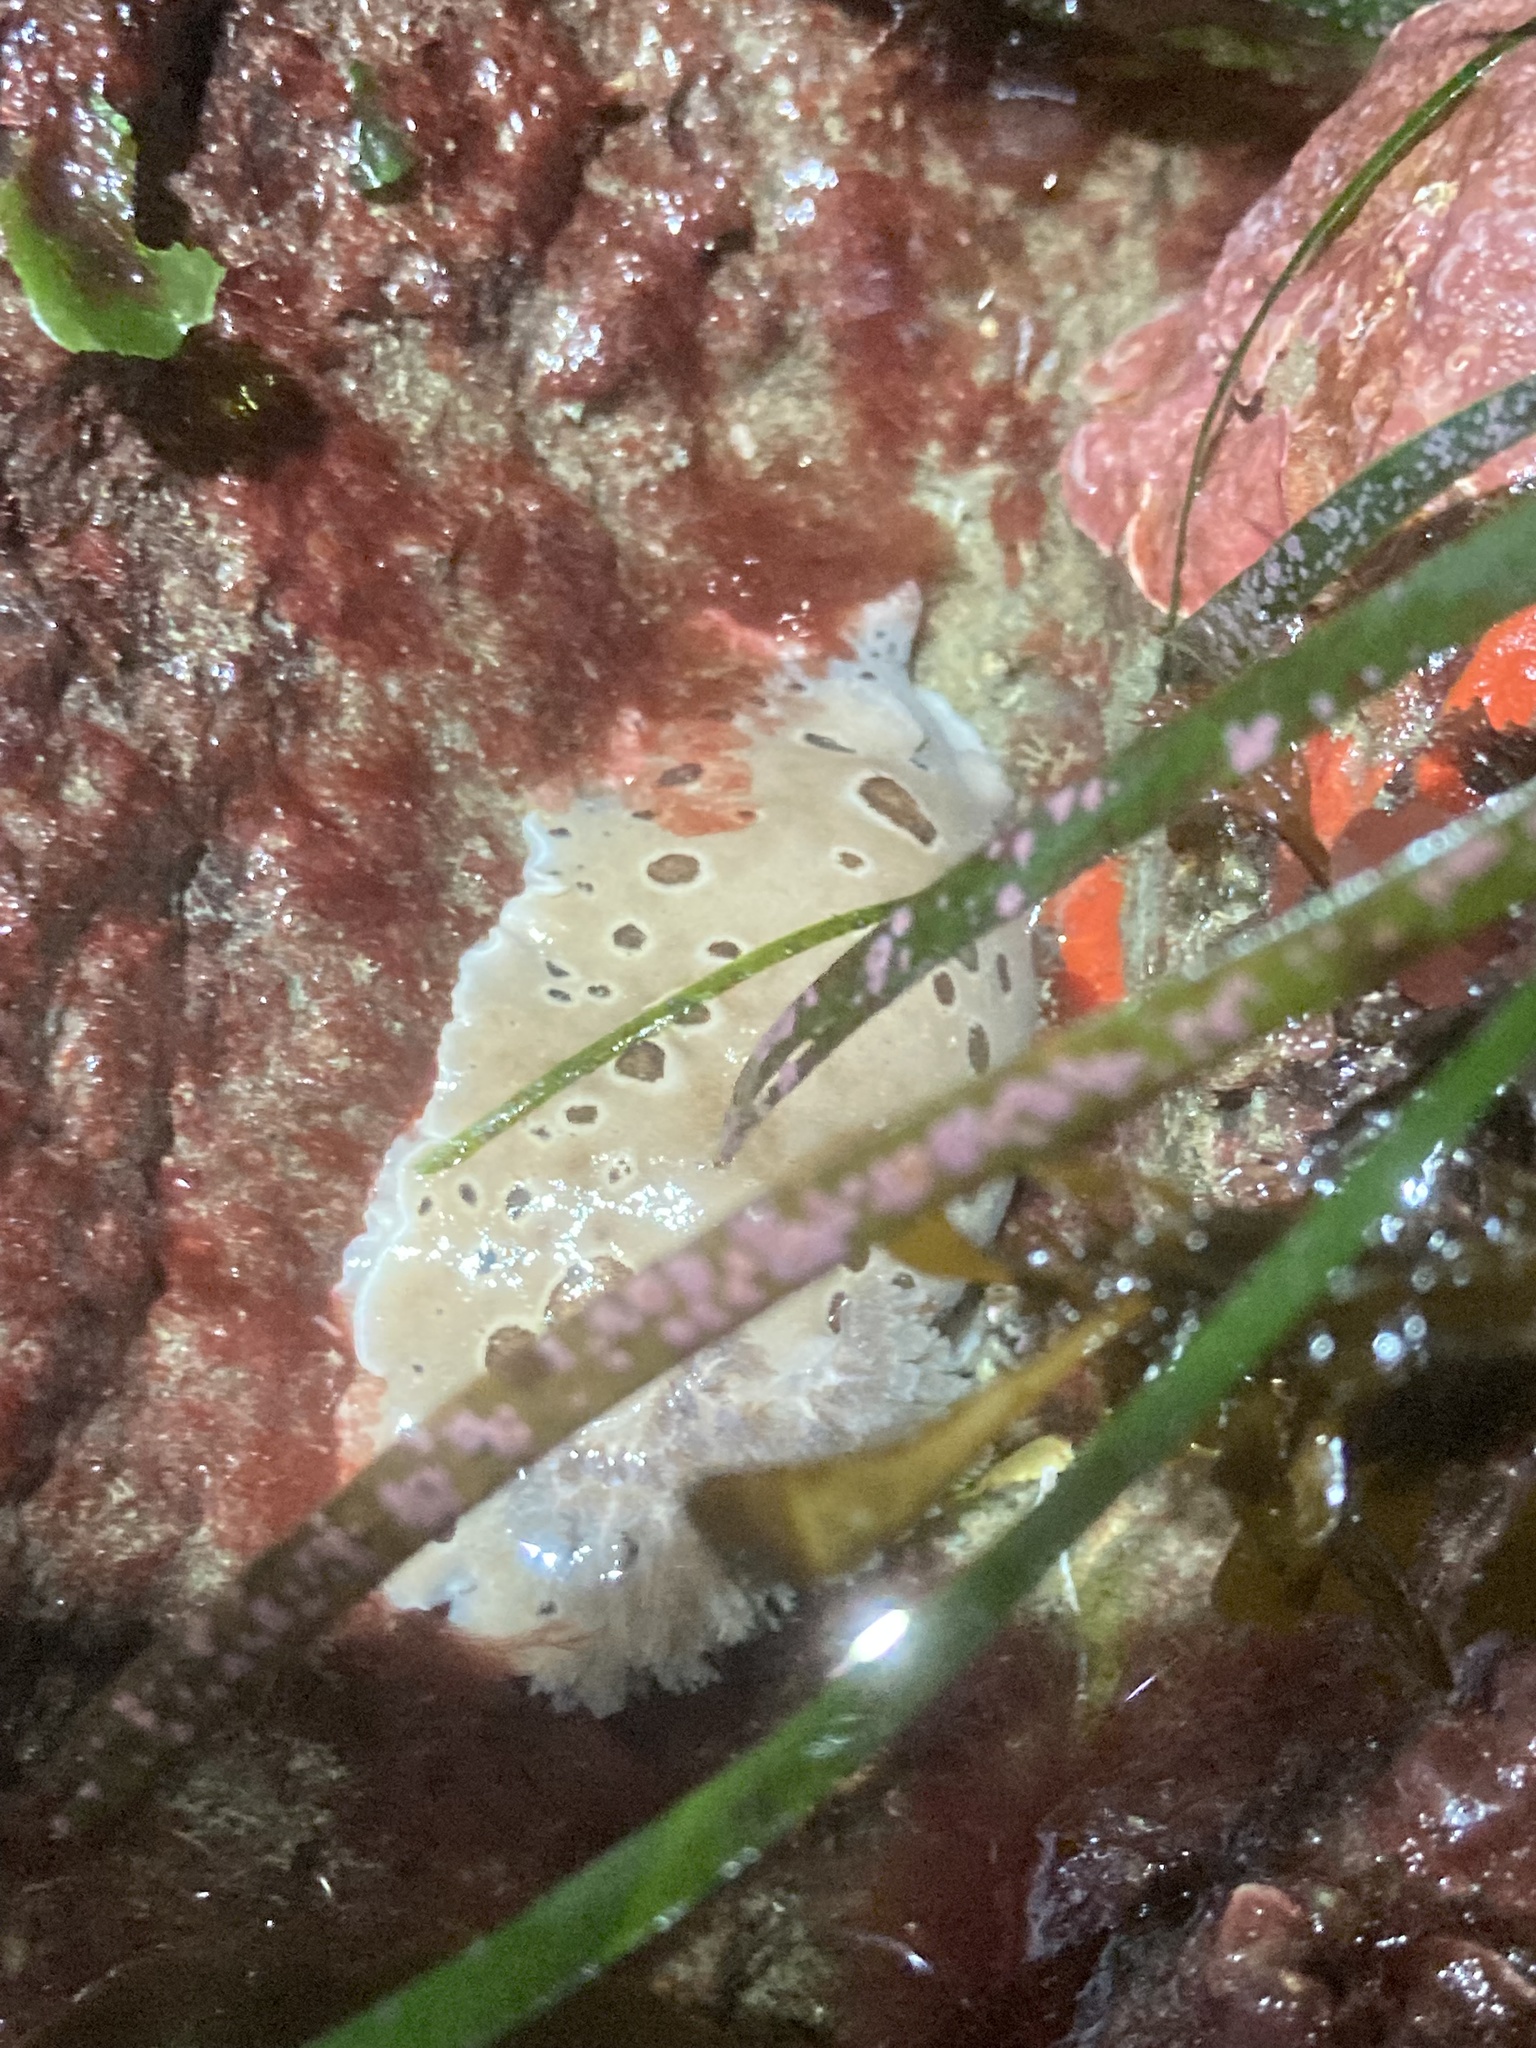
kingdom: Animalia
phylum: Mollusca
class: Gastropoda
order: Nudibranchia
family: Discodorididae
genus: Diaulula
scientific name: Diaulula odonoghuei
